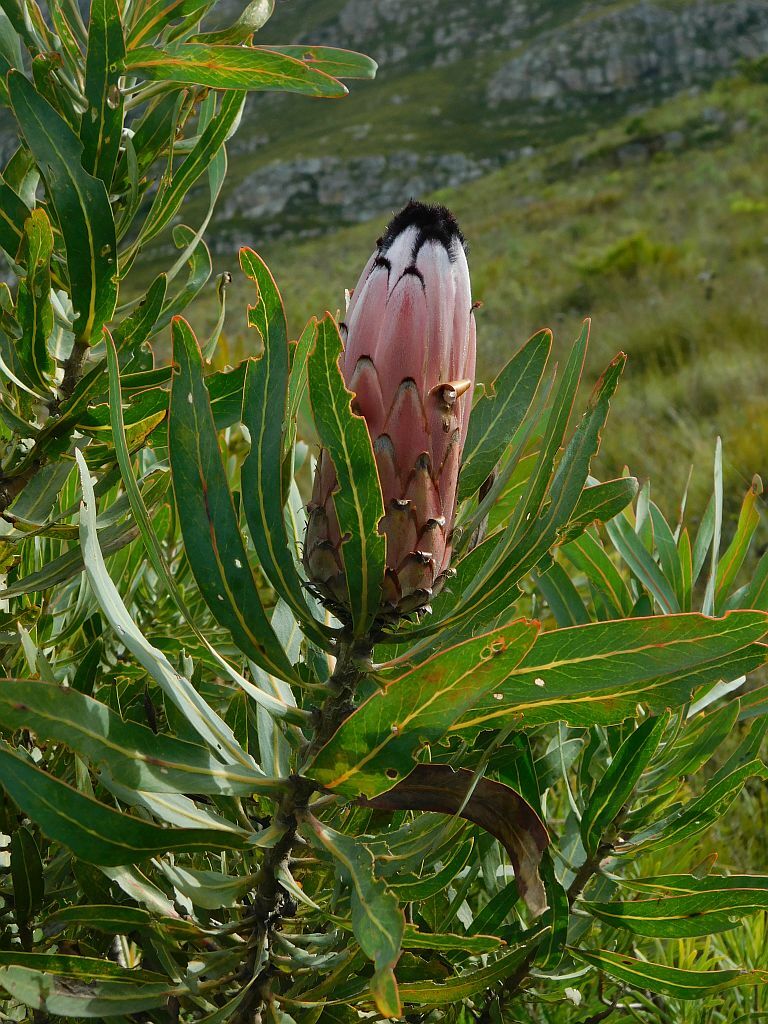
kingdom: Plantae
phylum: Tracheophyta
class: Magnoliopsida
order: Proteales
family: Proteaceae
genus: Protea
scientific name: Protea neriifolia
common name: Blue sugarbush
